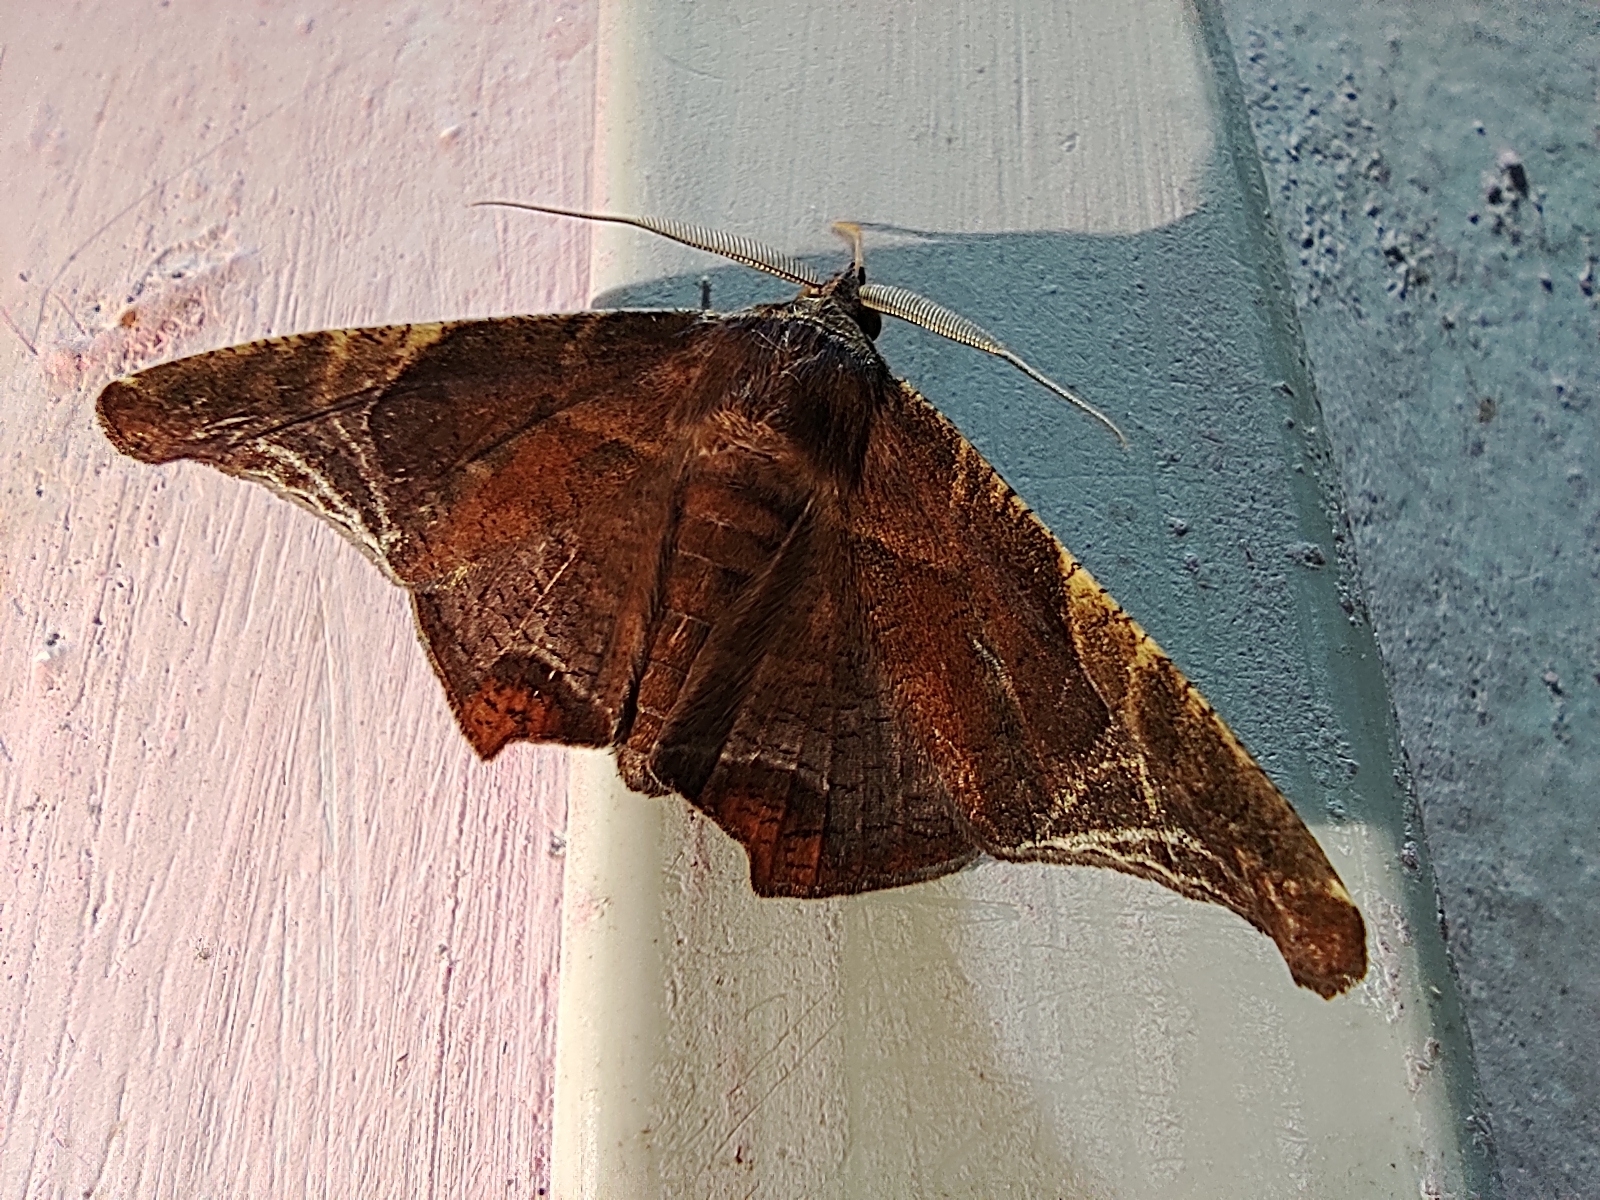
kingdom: Animalia
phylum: Arthropoda
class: Insecta
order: Lepidoptera
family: Erebidae
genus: Episparis
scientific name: Episparis tortuosalis
